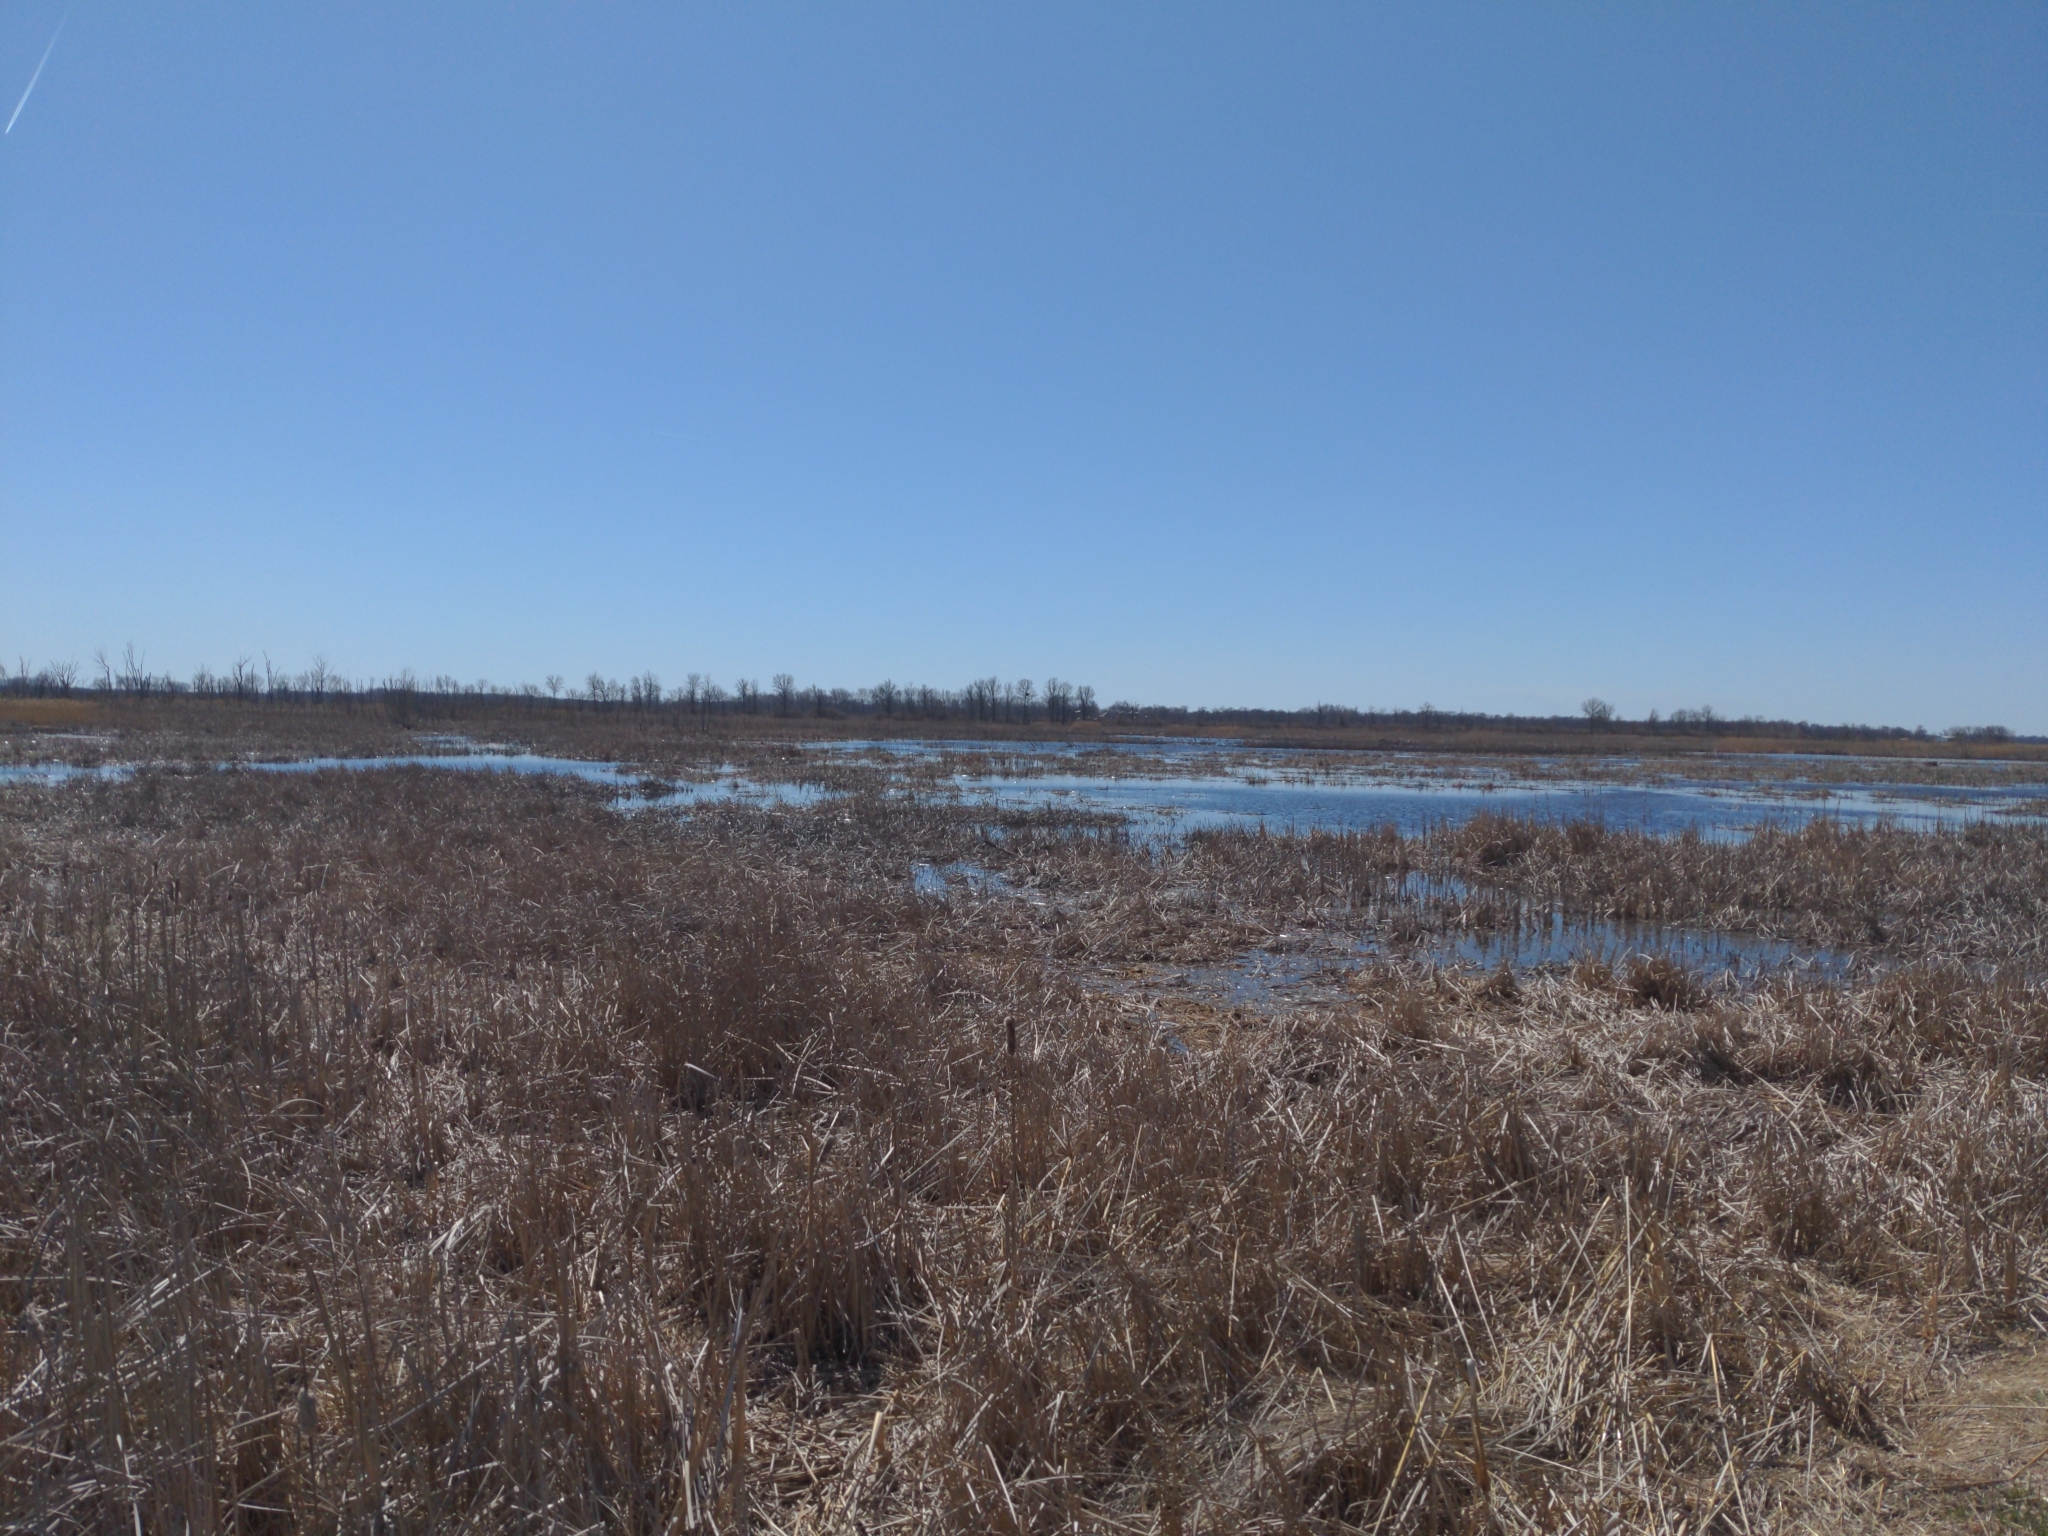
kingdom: Animalia
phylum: Chordata
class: Aves
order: Anseriformes
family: Anatidae
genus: Branta
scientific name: Branta canadensis
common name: Canada goose
